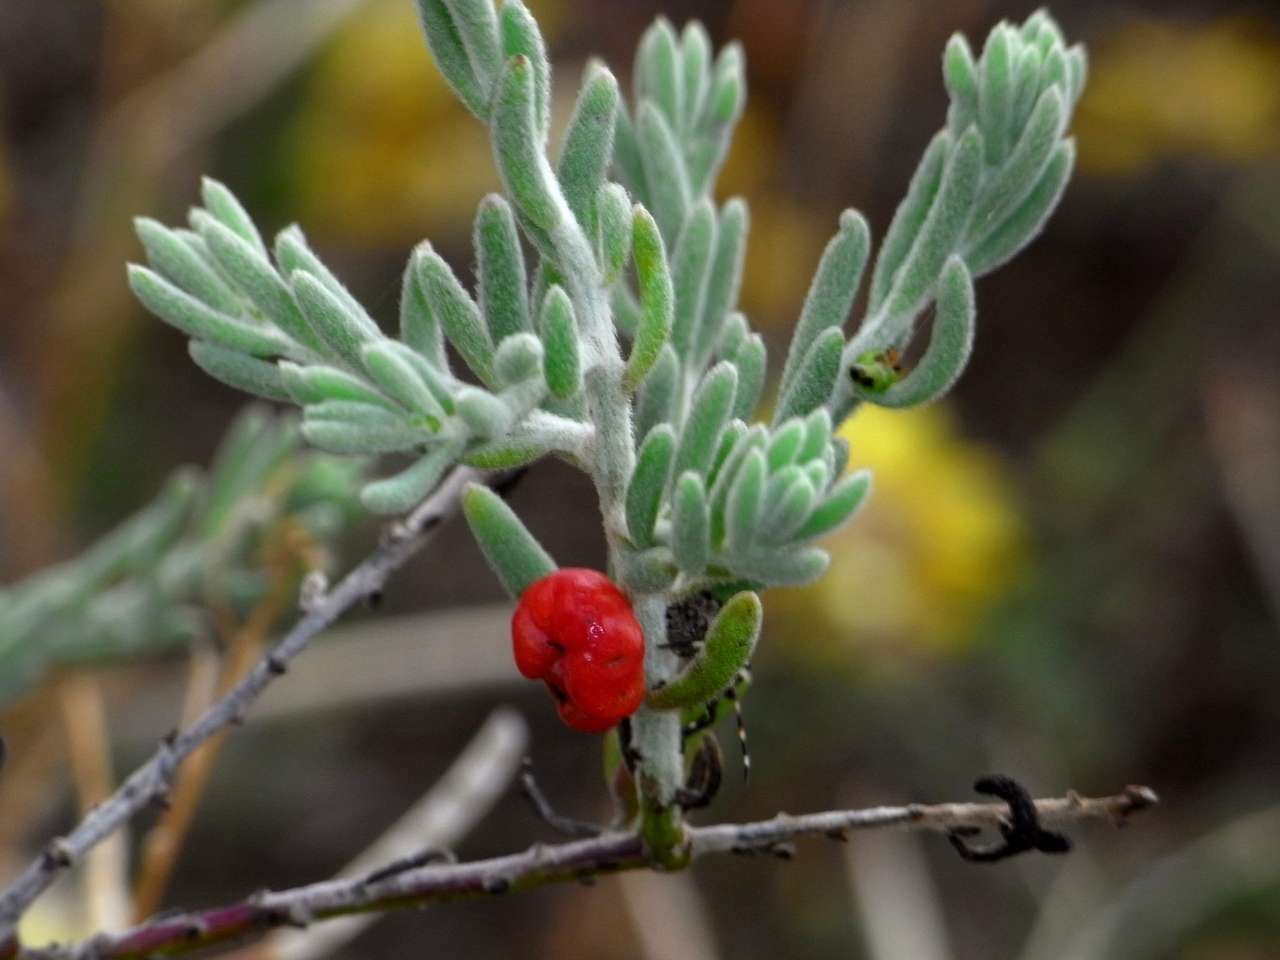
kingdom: Plantae
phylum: Tracheophyta
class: Magnoliopsida
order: Caryophyllales
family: Amaranthaceae
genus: Enchylaena
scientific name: Enchylaena tomentosa
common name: Ruby saltbush
